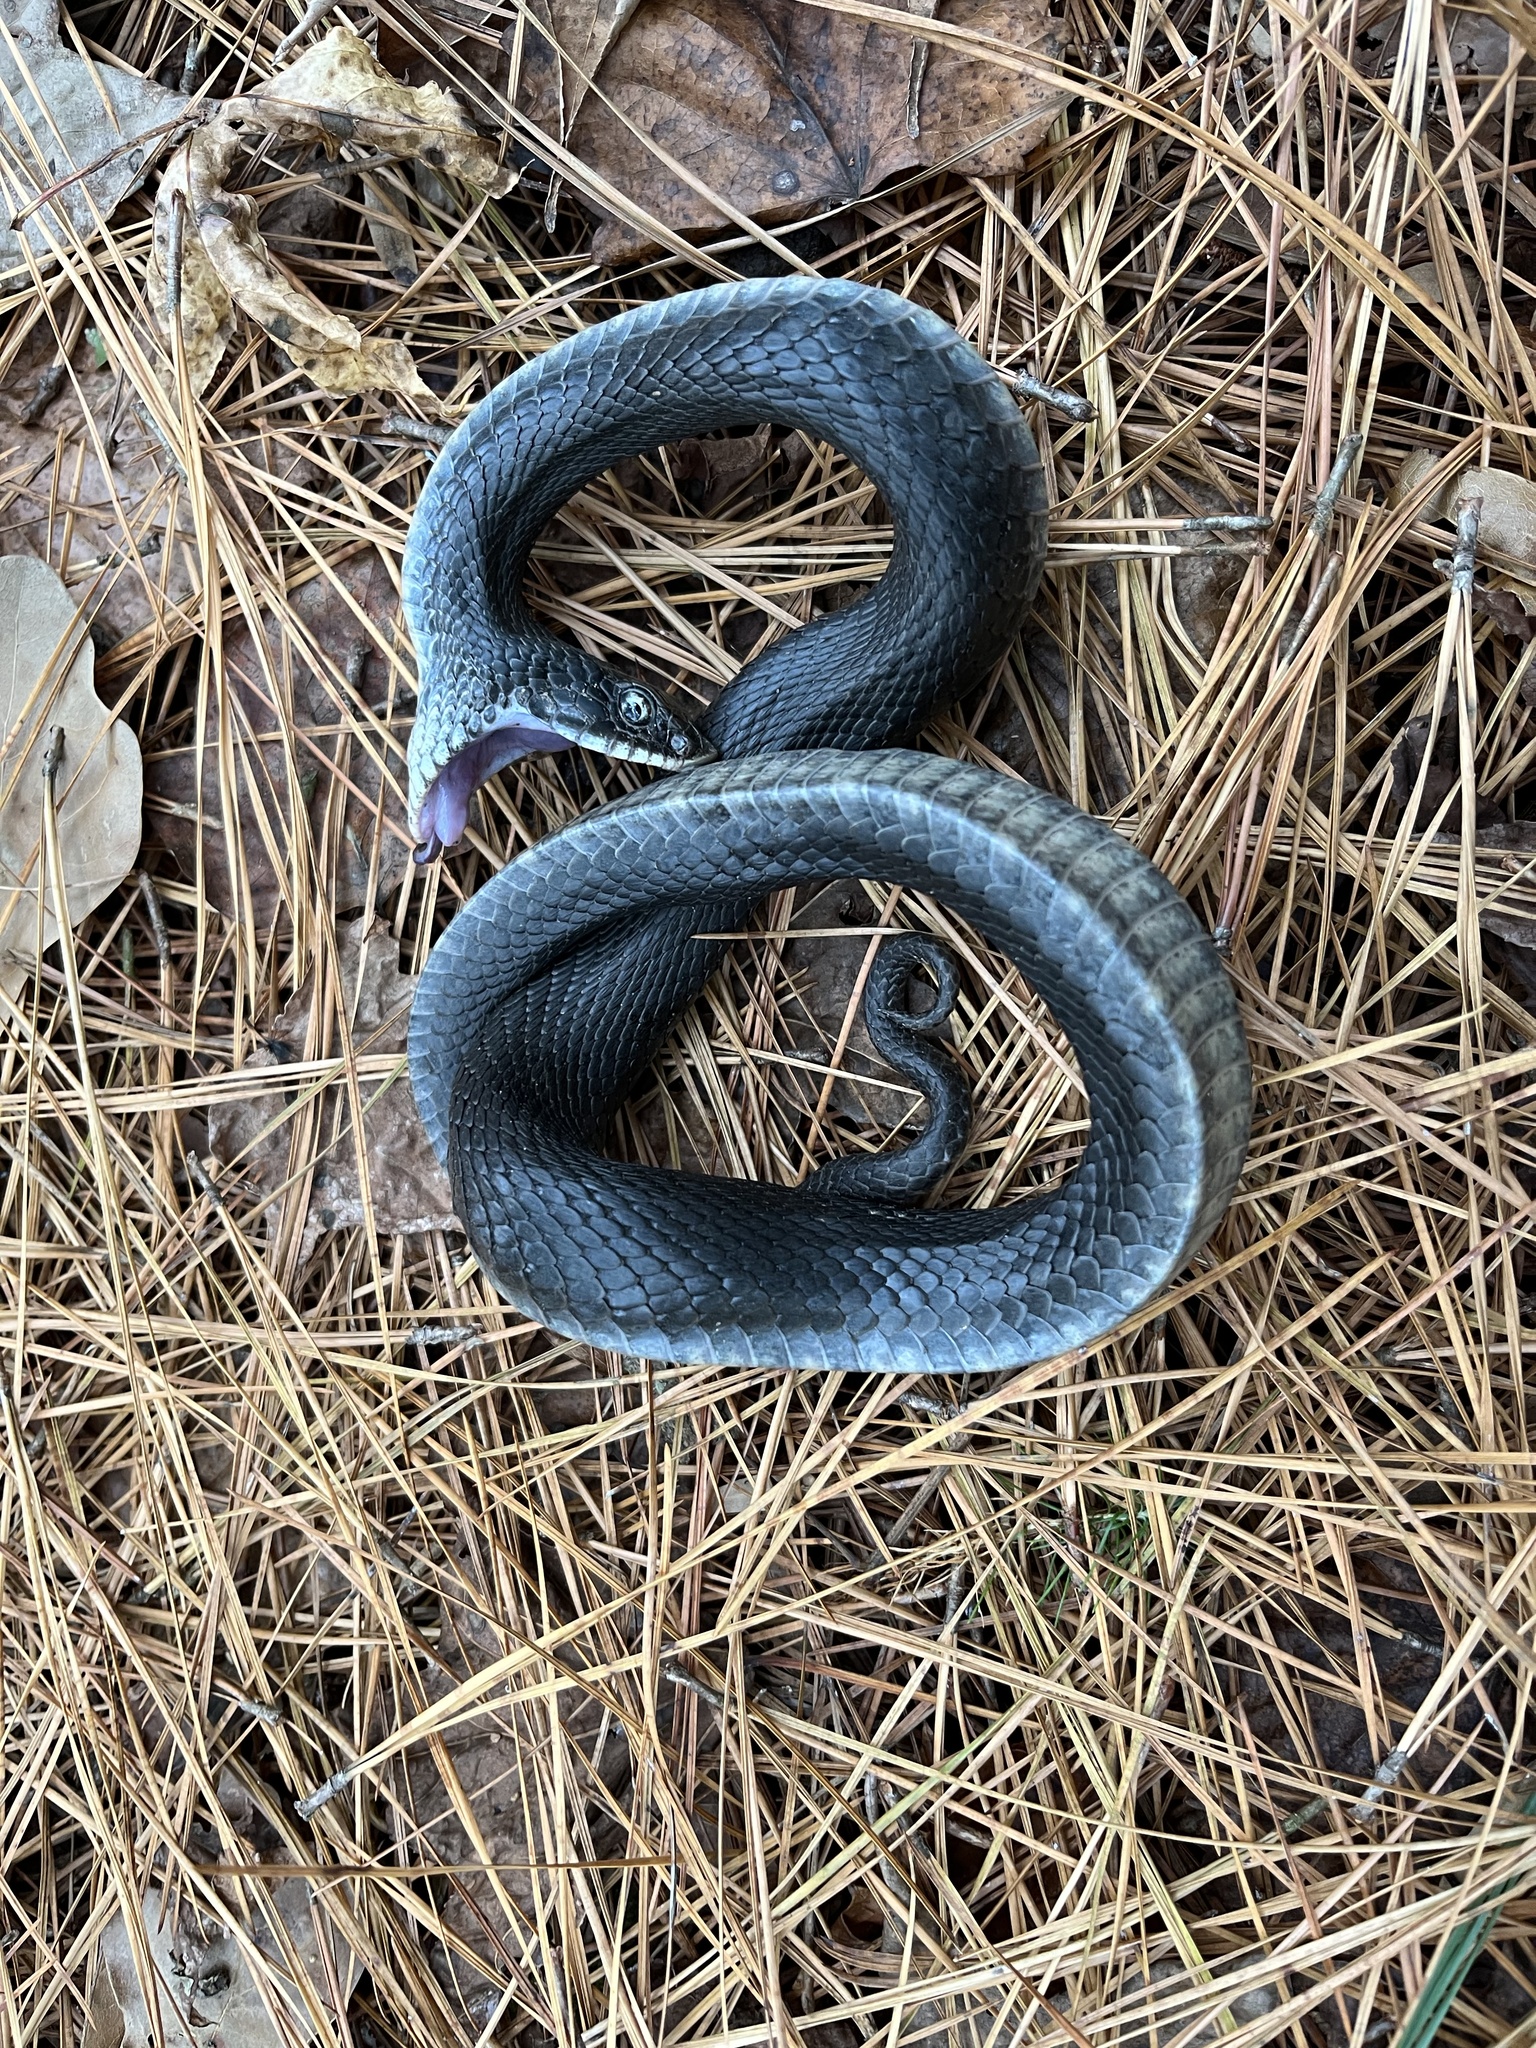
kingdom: Animalia
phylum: Chordata
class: Squamata
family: Colubridae
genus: Heterodon
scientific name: Heterodon platirhinos
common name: Eastern hognose snake
